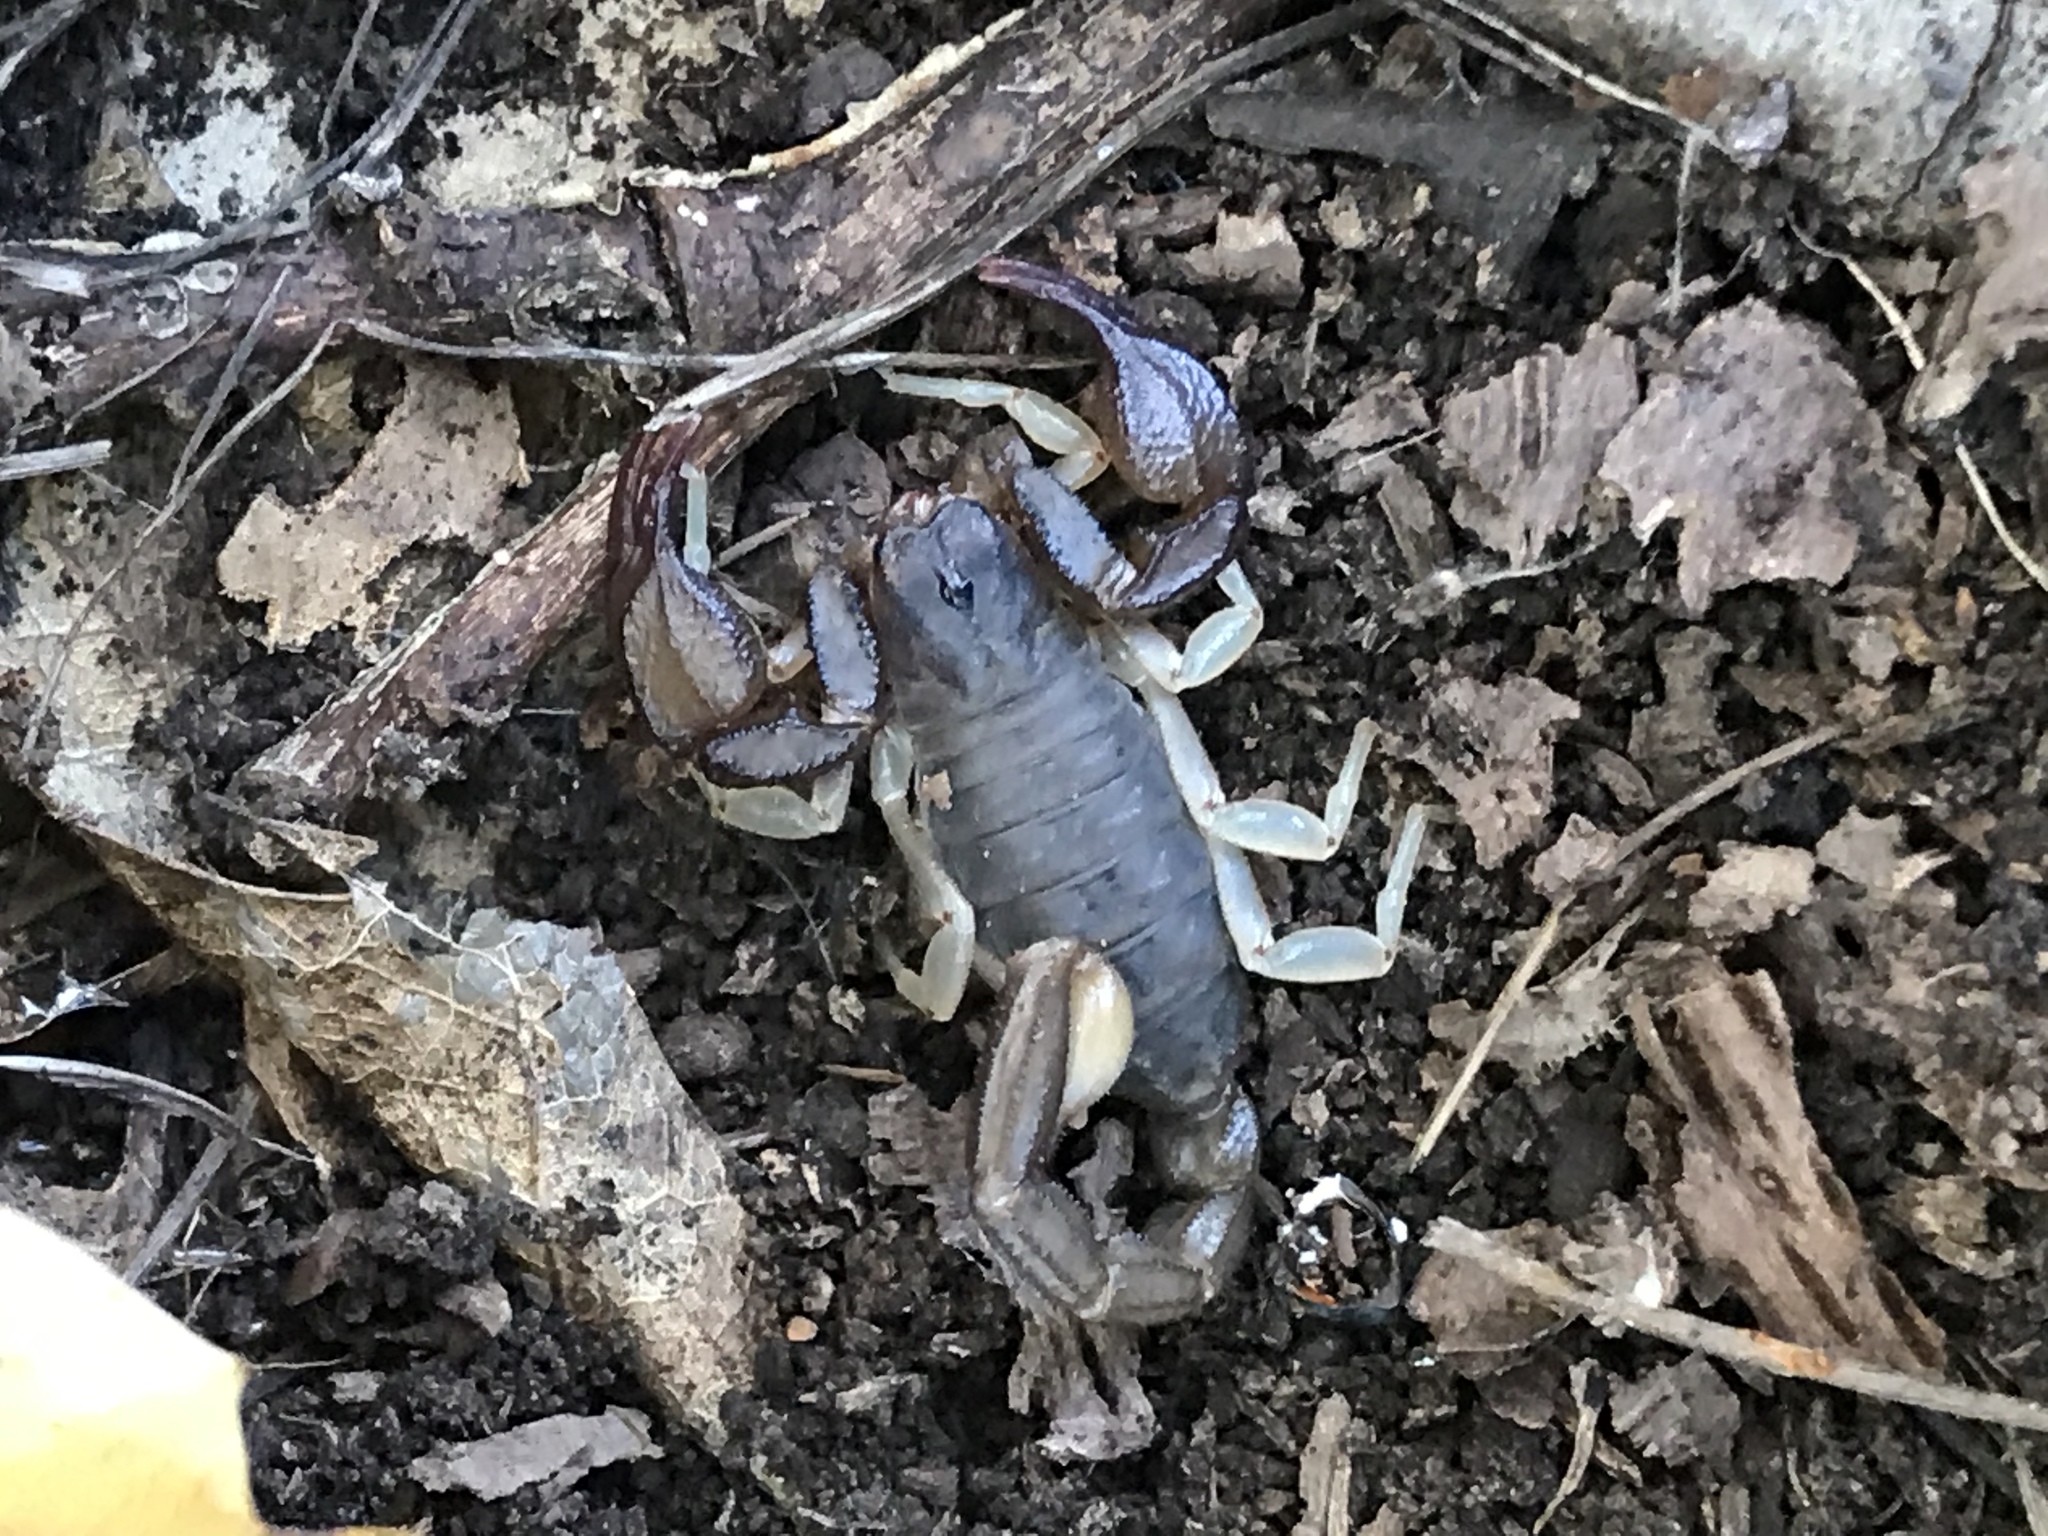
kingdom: Animalia
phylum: Arthropoda
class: Arachnida
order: Scorpiones
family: Chactidae
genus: Uroctonus
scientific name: Uroctonus mordax
